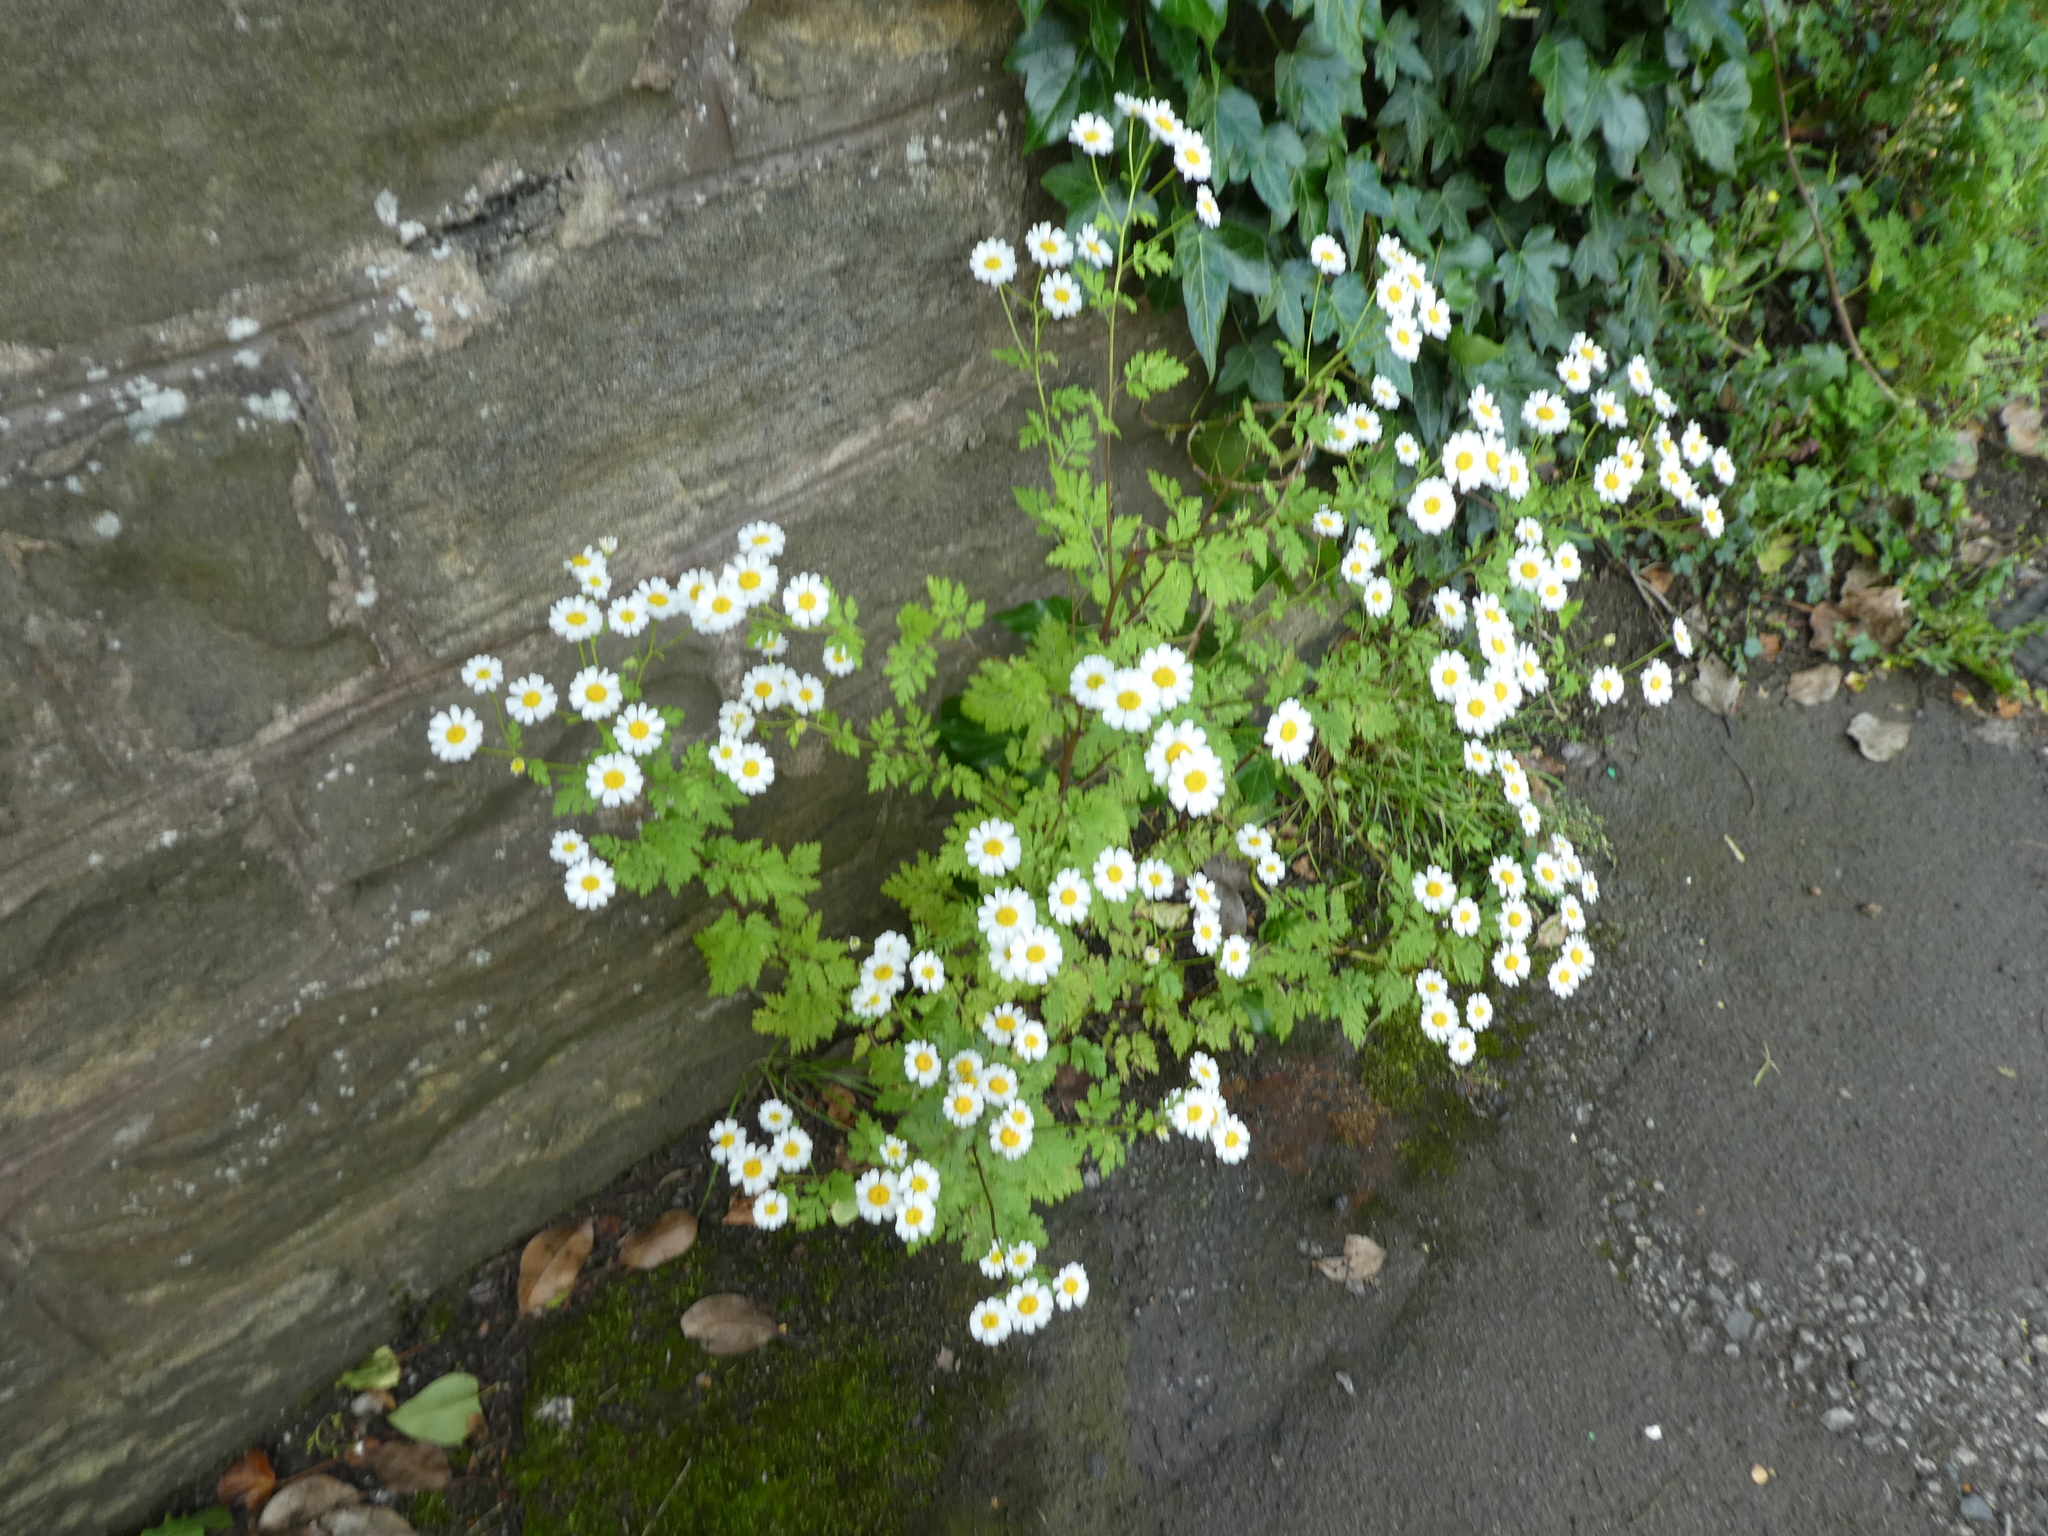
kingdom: Plantae
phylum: Tracheophyta
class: Magnoliopsida
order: Asterales
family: Asteraceae
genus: Tanacetum
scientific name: Tanacetum parthenium
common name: Feverfew
